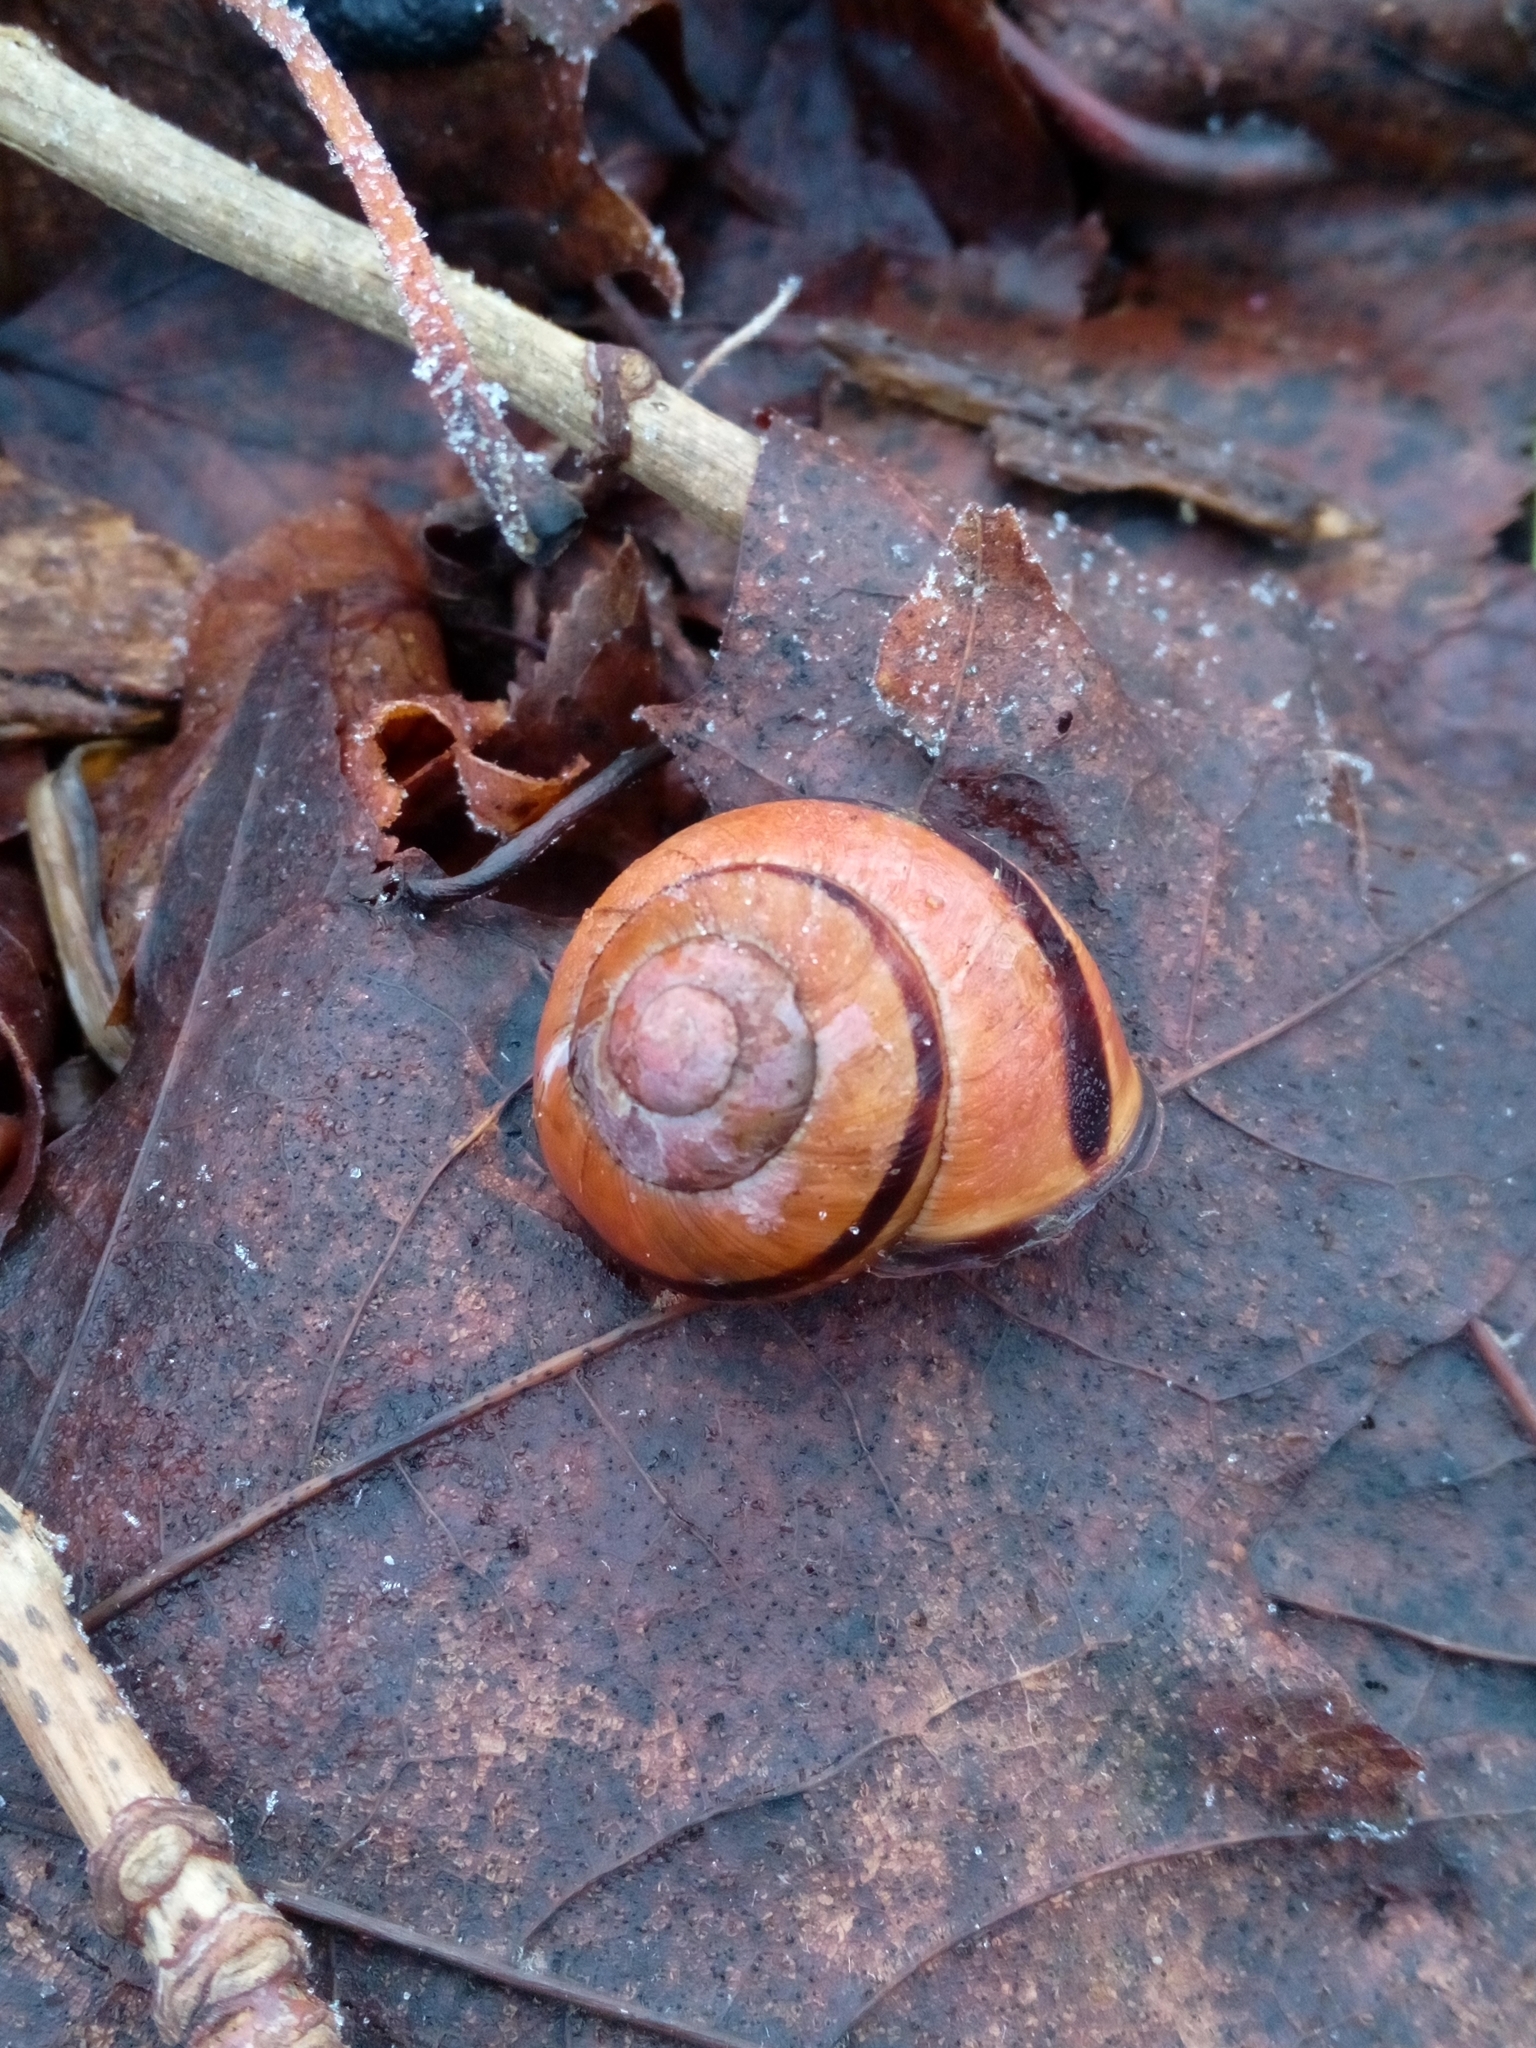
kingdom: Animalia
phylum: Mollusca
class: Gastropoda
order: Stylommatophora
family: Helicidae
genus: Cepaea
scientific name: Cepaea nemoralis
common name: Grovesnail
